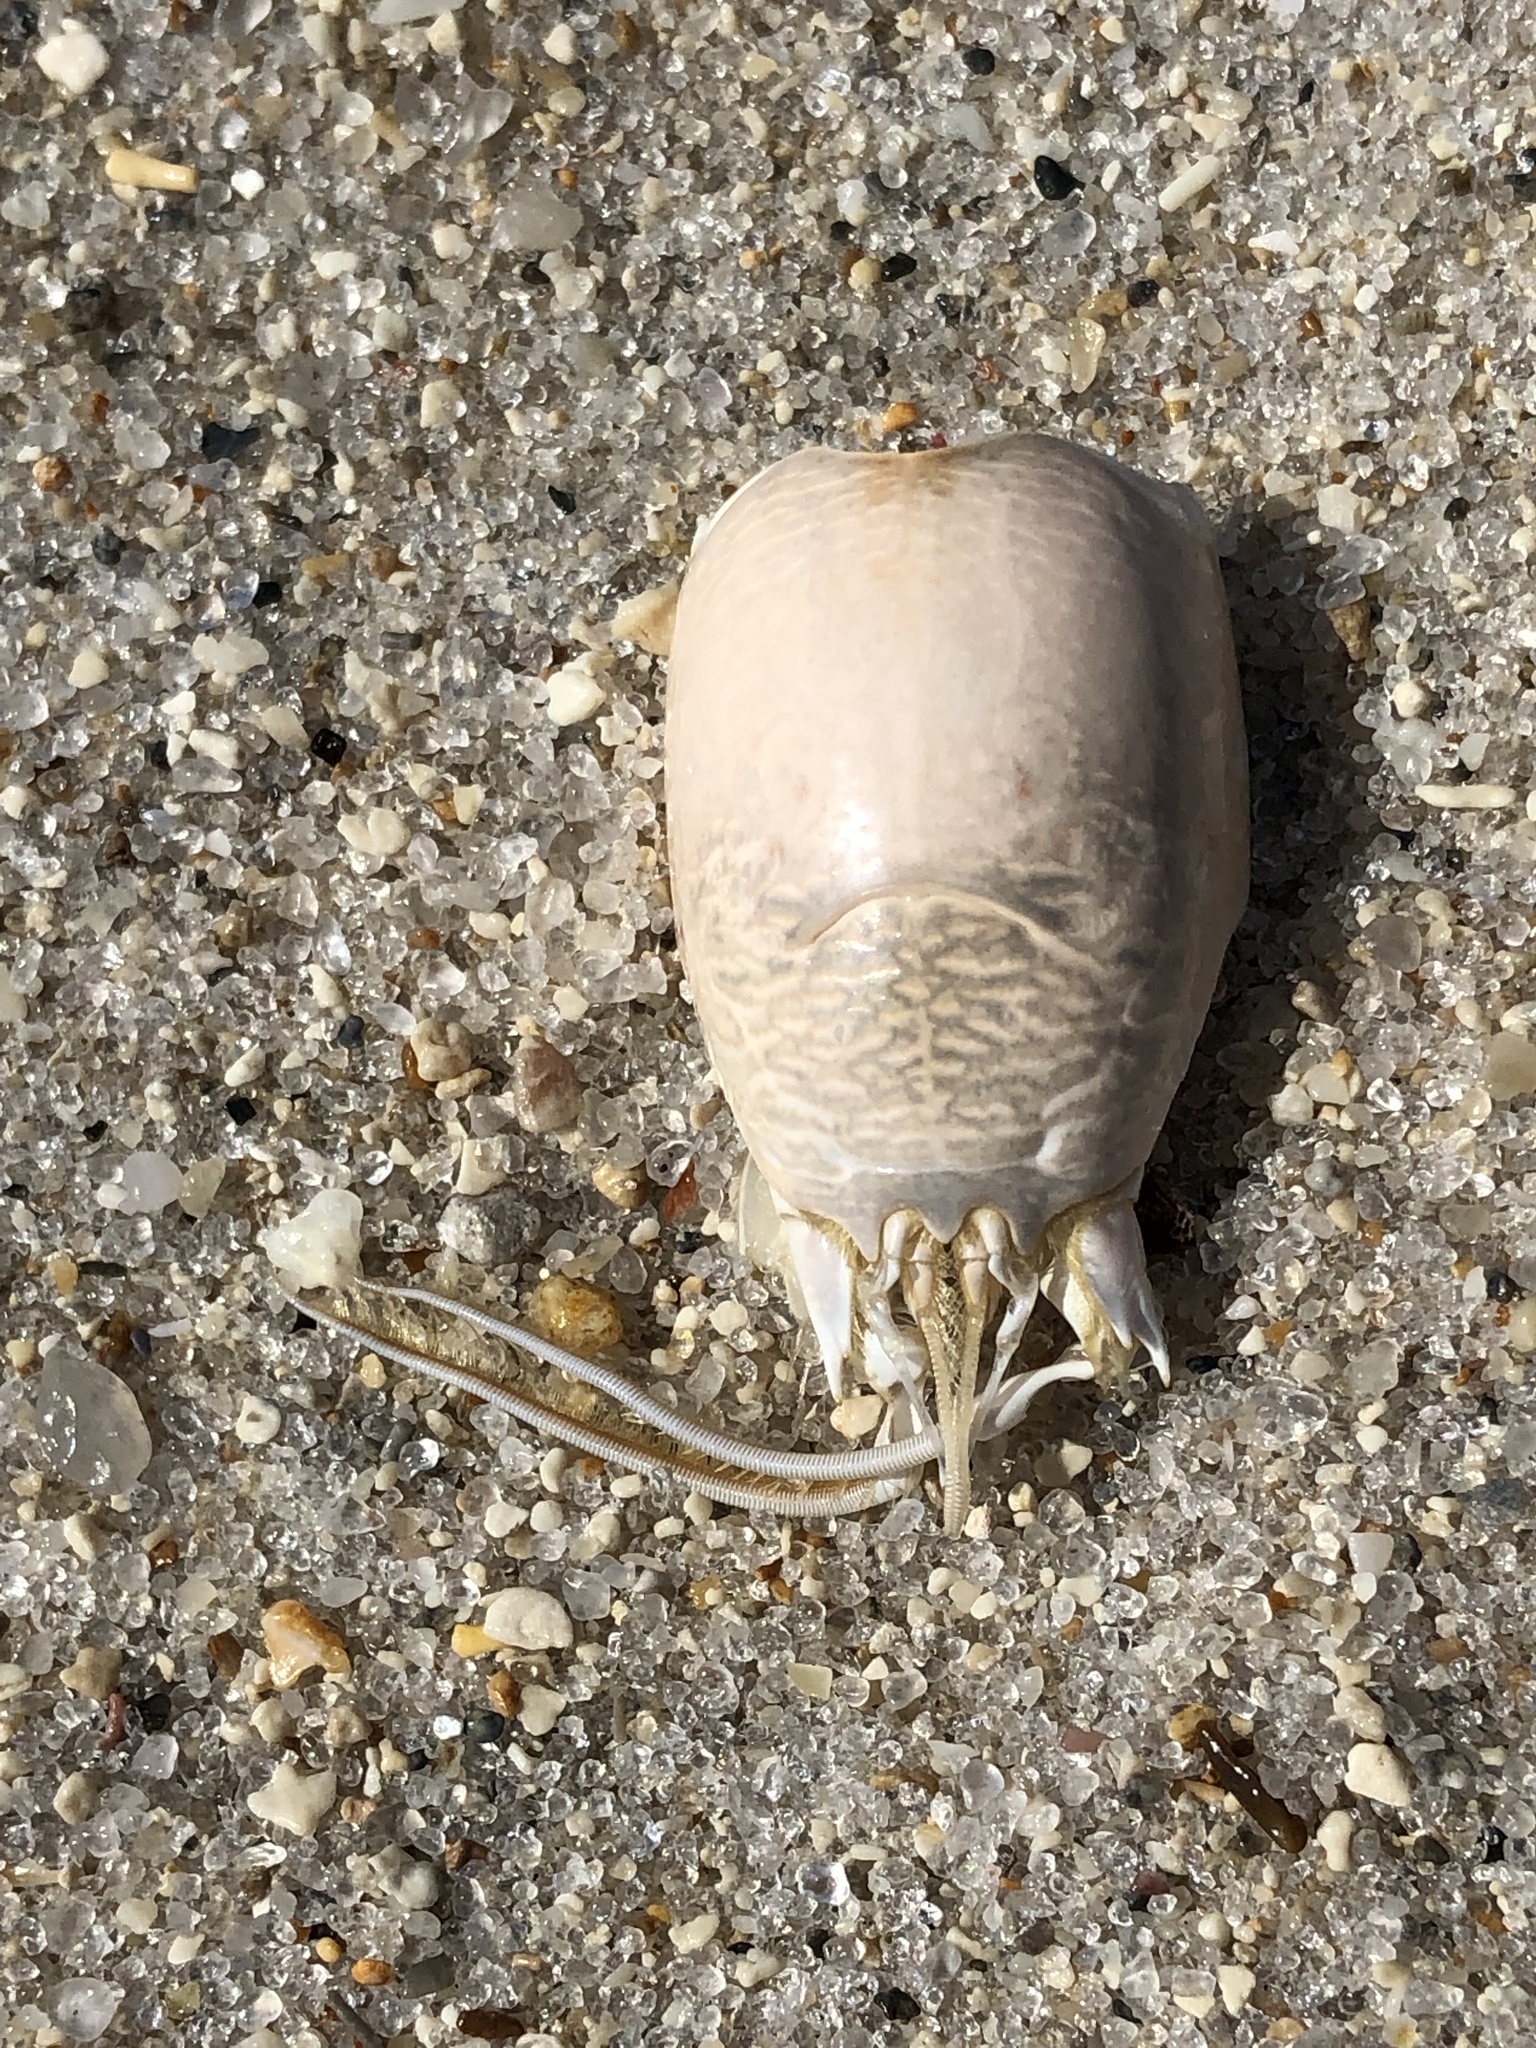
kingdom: Animalia
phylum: Arthropoda
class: Malacostraca
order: Decapoda
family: Hippidae
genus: Emerita
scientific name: Emerita talpoida
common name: Atlantic sand crab
